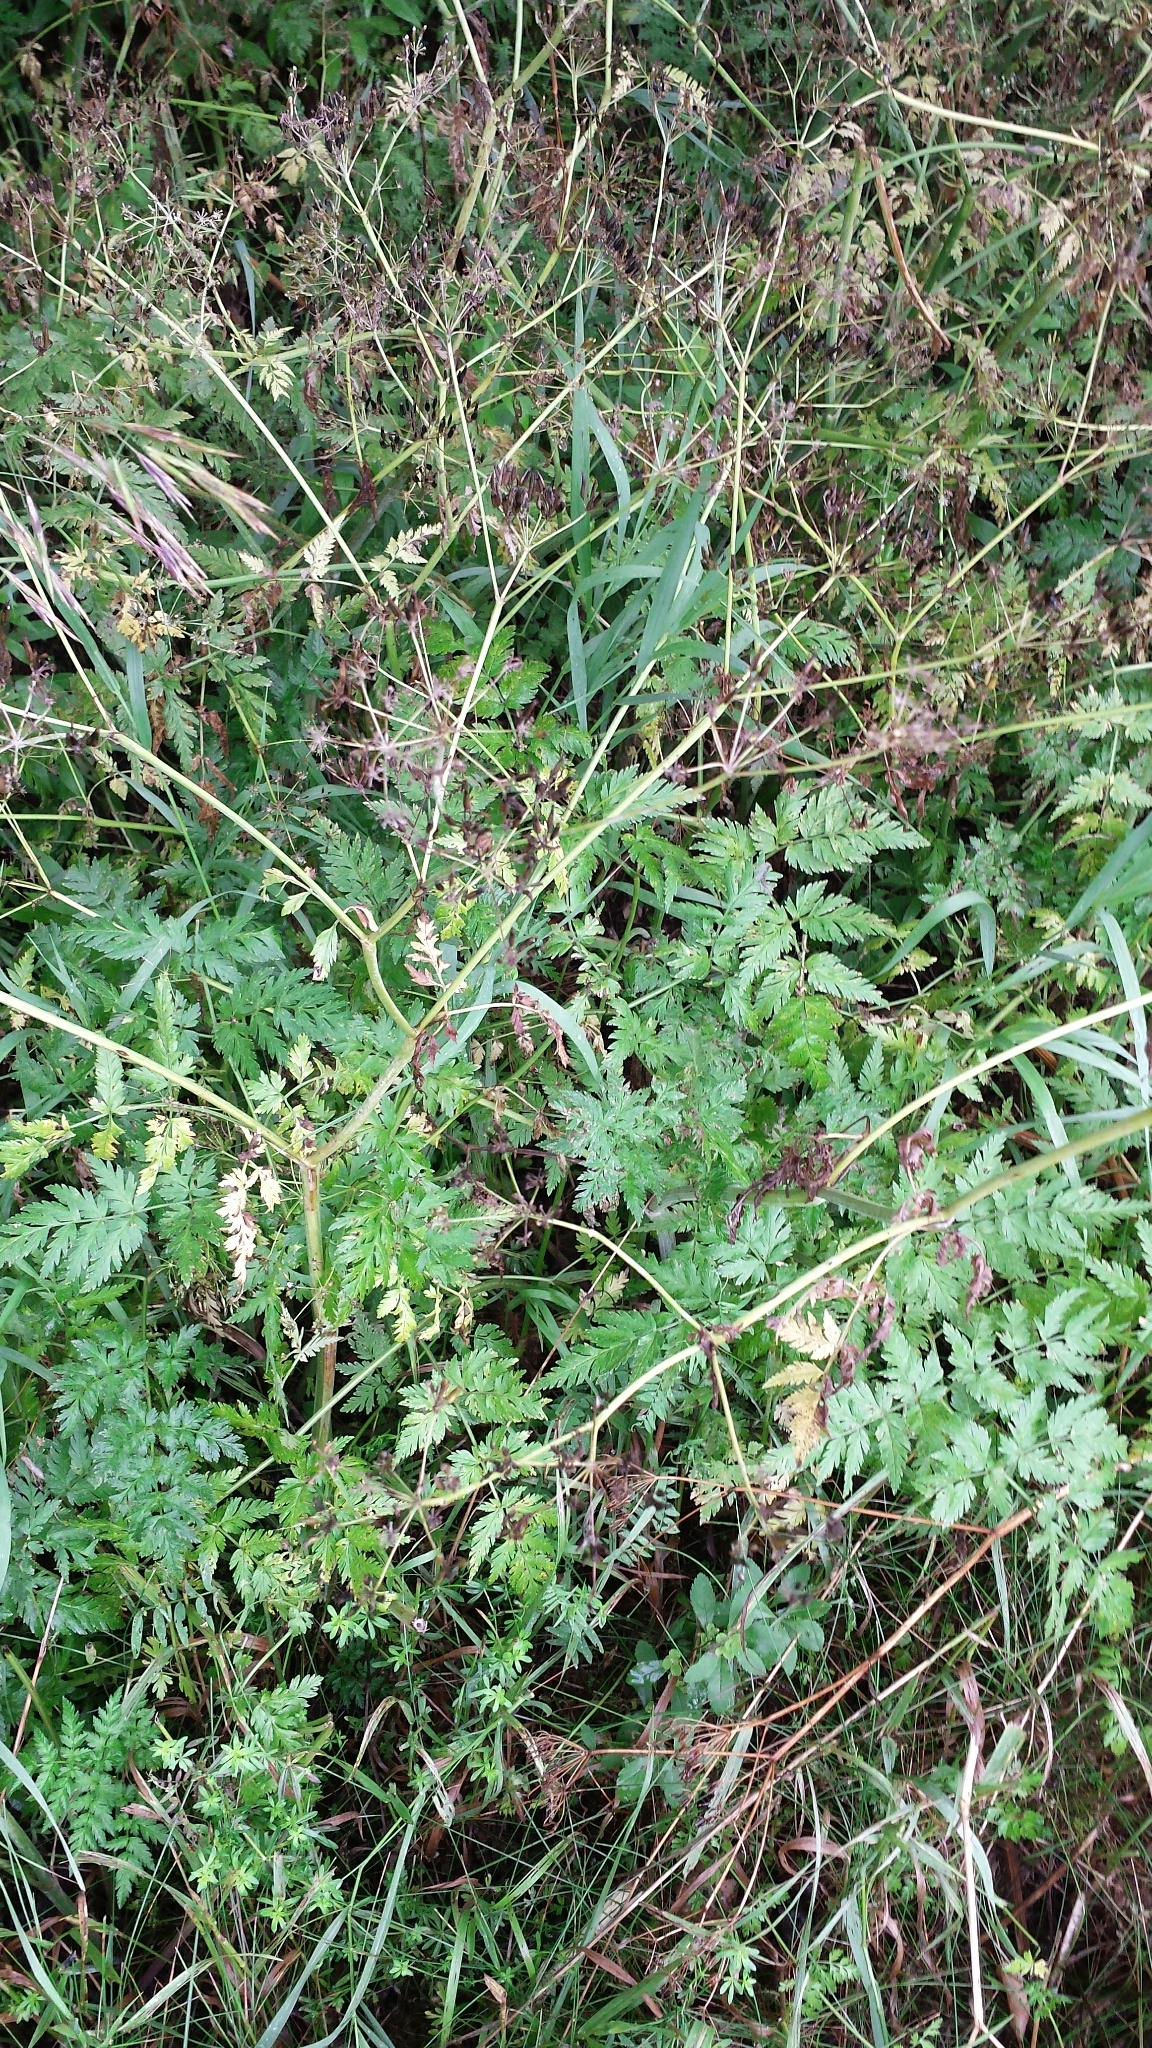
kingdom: Plantae
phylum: Tracheophyta
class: Magnoliopsida
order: Apiales
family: Apiaceae
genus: Anthriscus
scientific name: Anthriscus sylvestris
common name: Cow parsley
